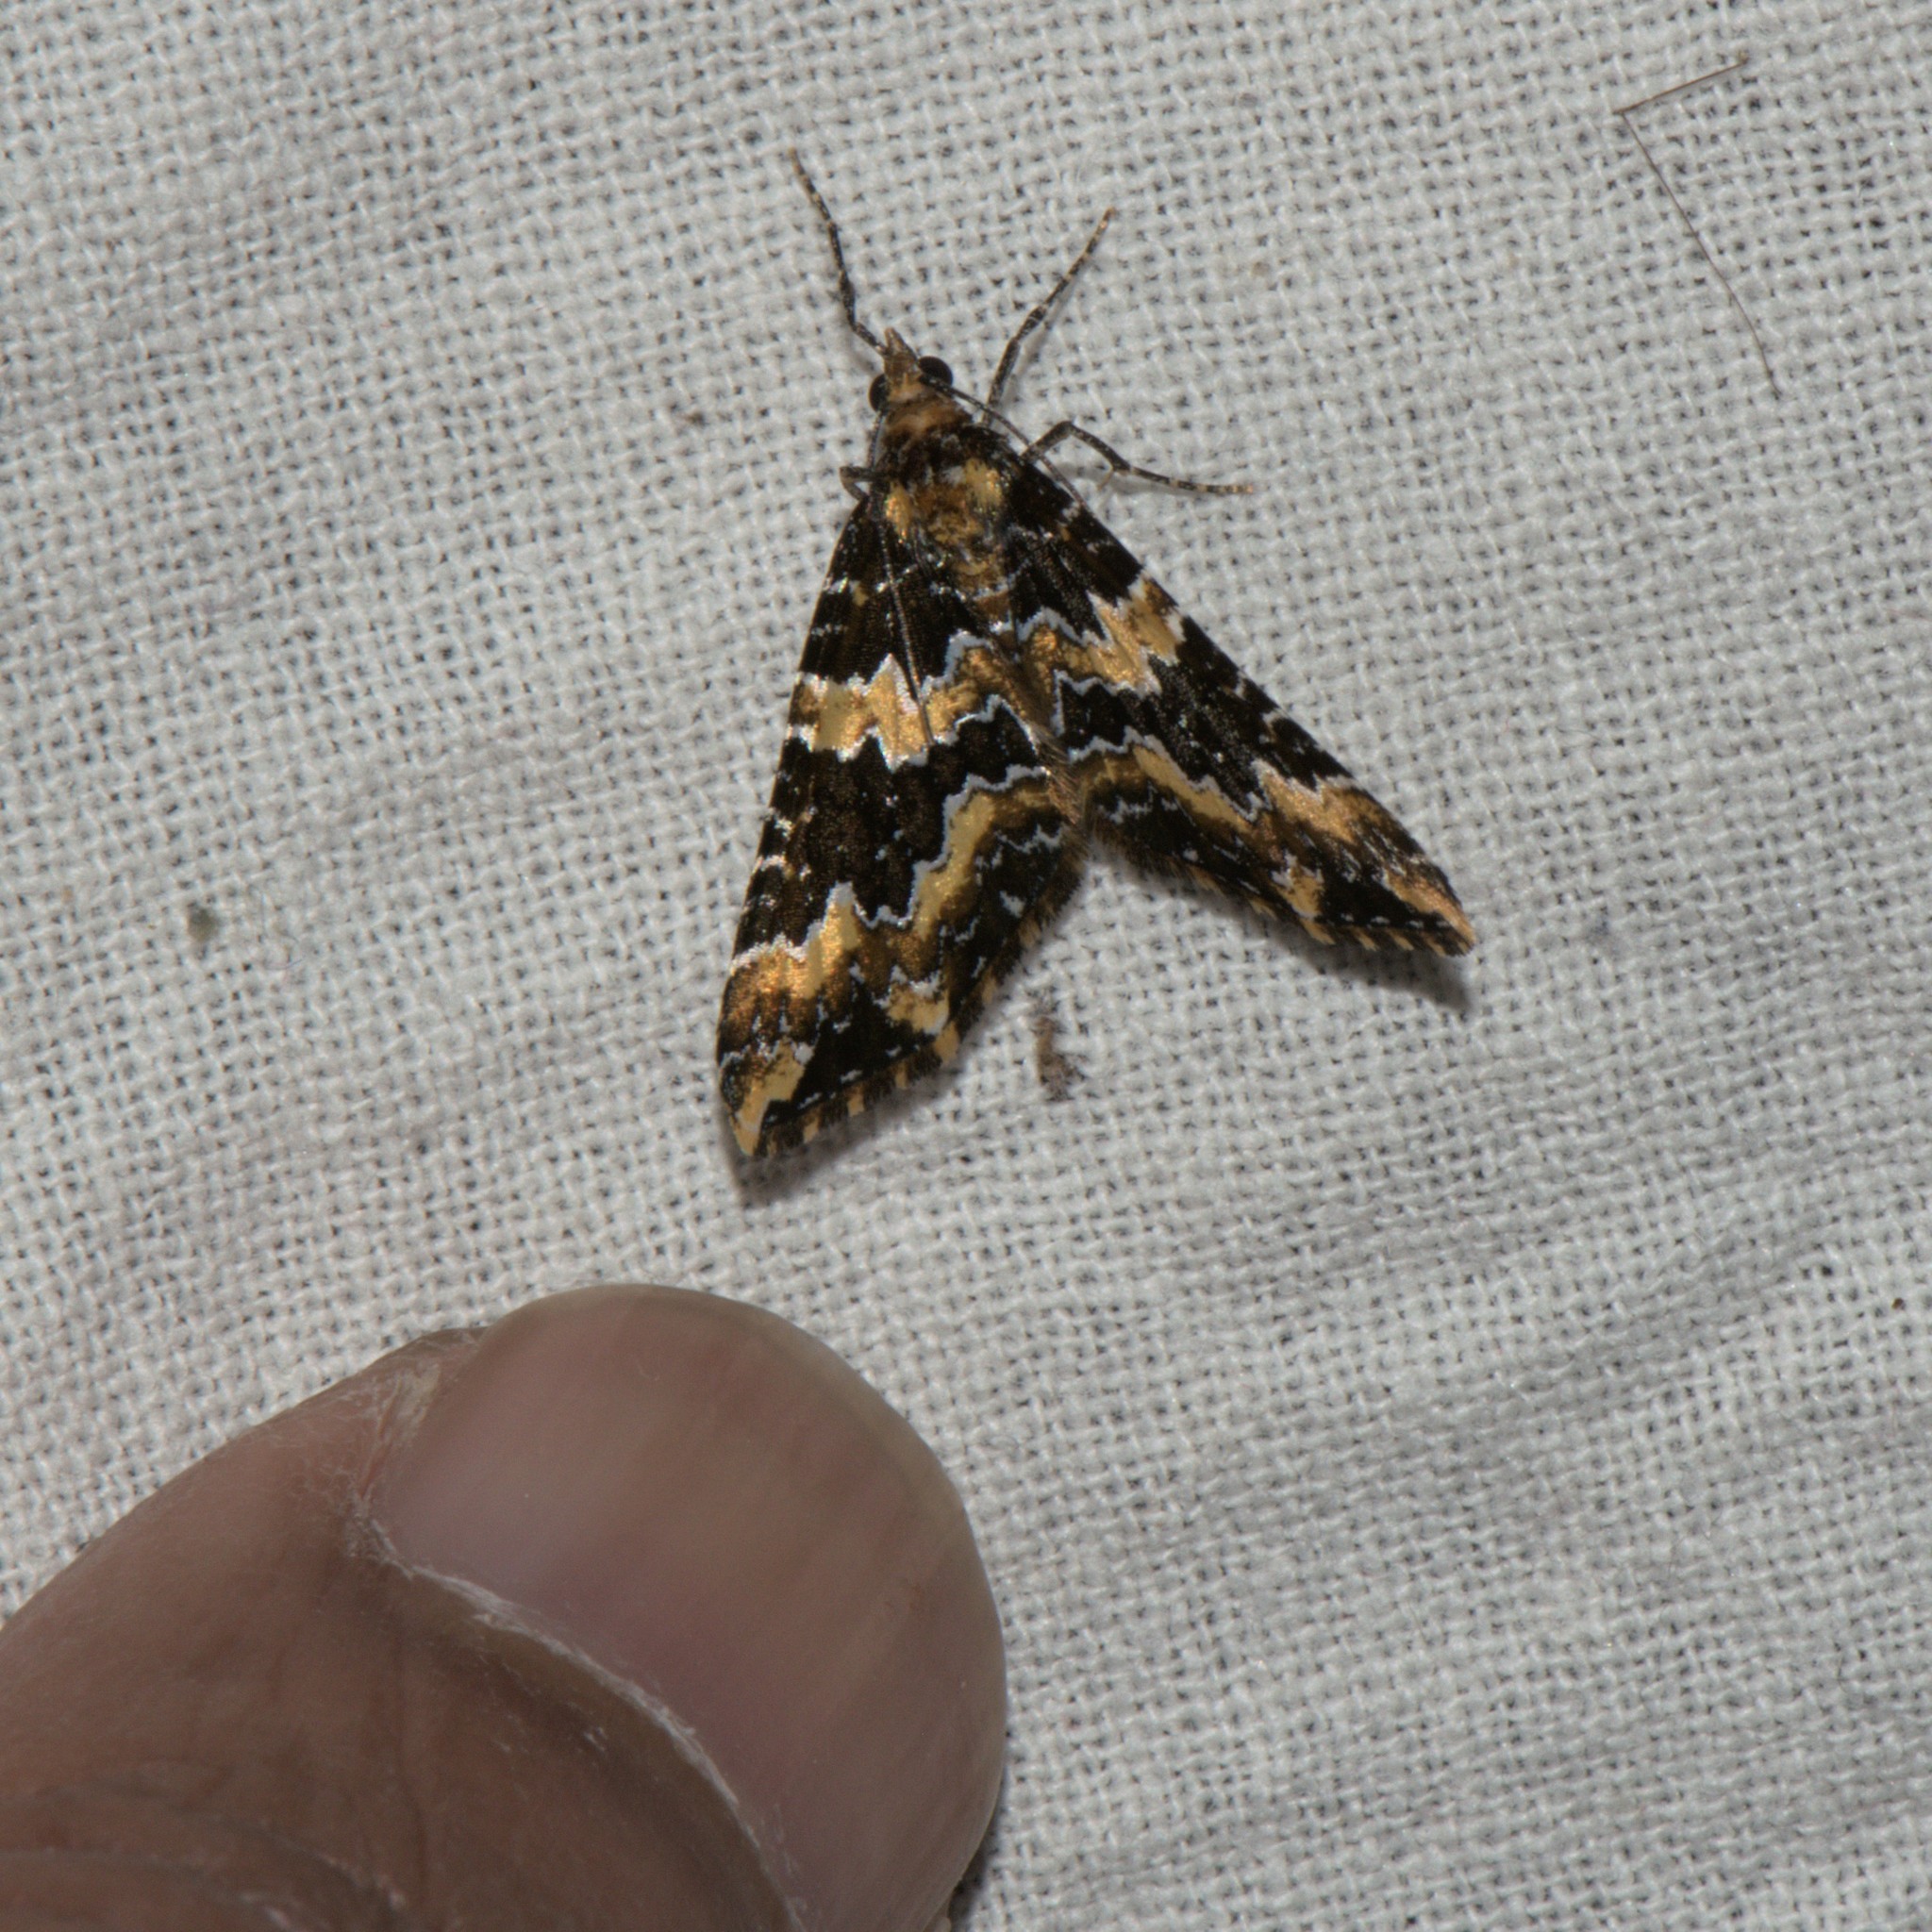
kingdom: Animalia
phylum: Arthropoda
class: Insecta
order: Lepidoptera
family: Geometridae
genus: Electrophaes
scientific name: Electrophaes marginata
